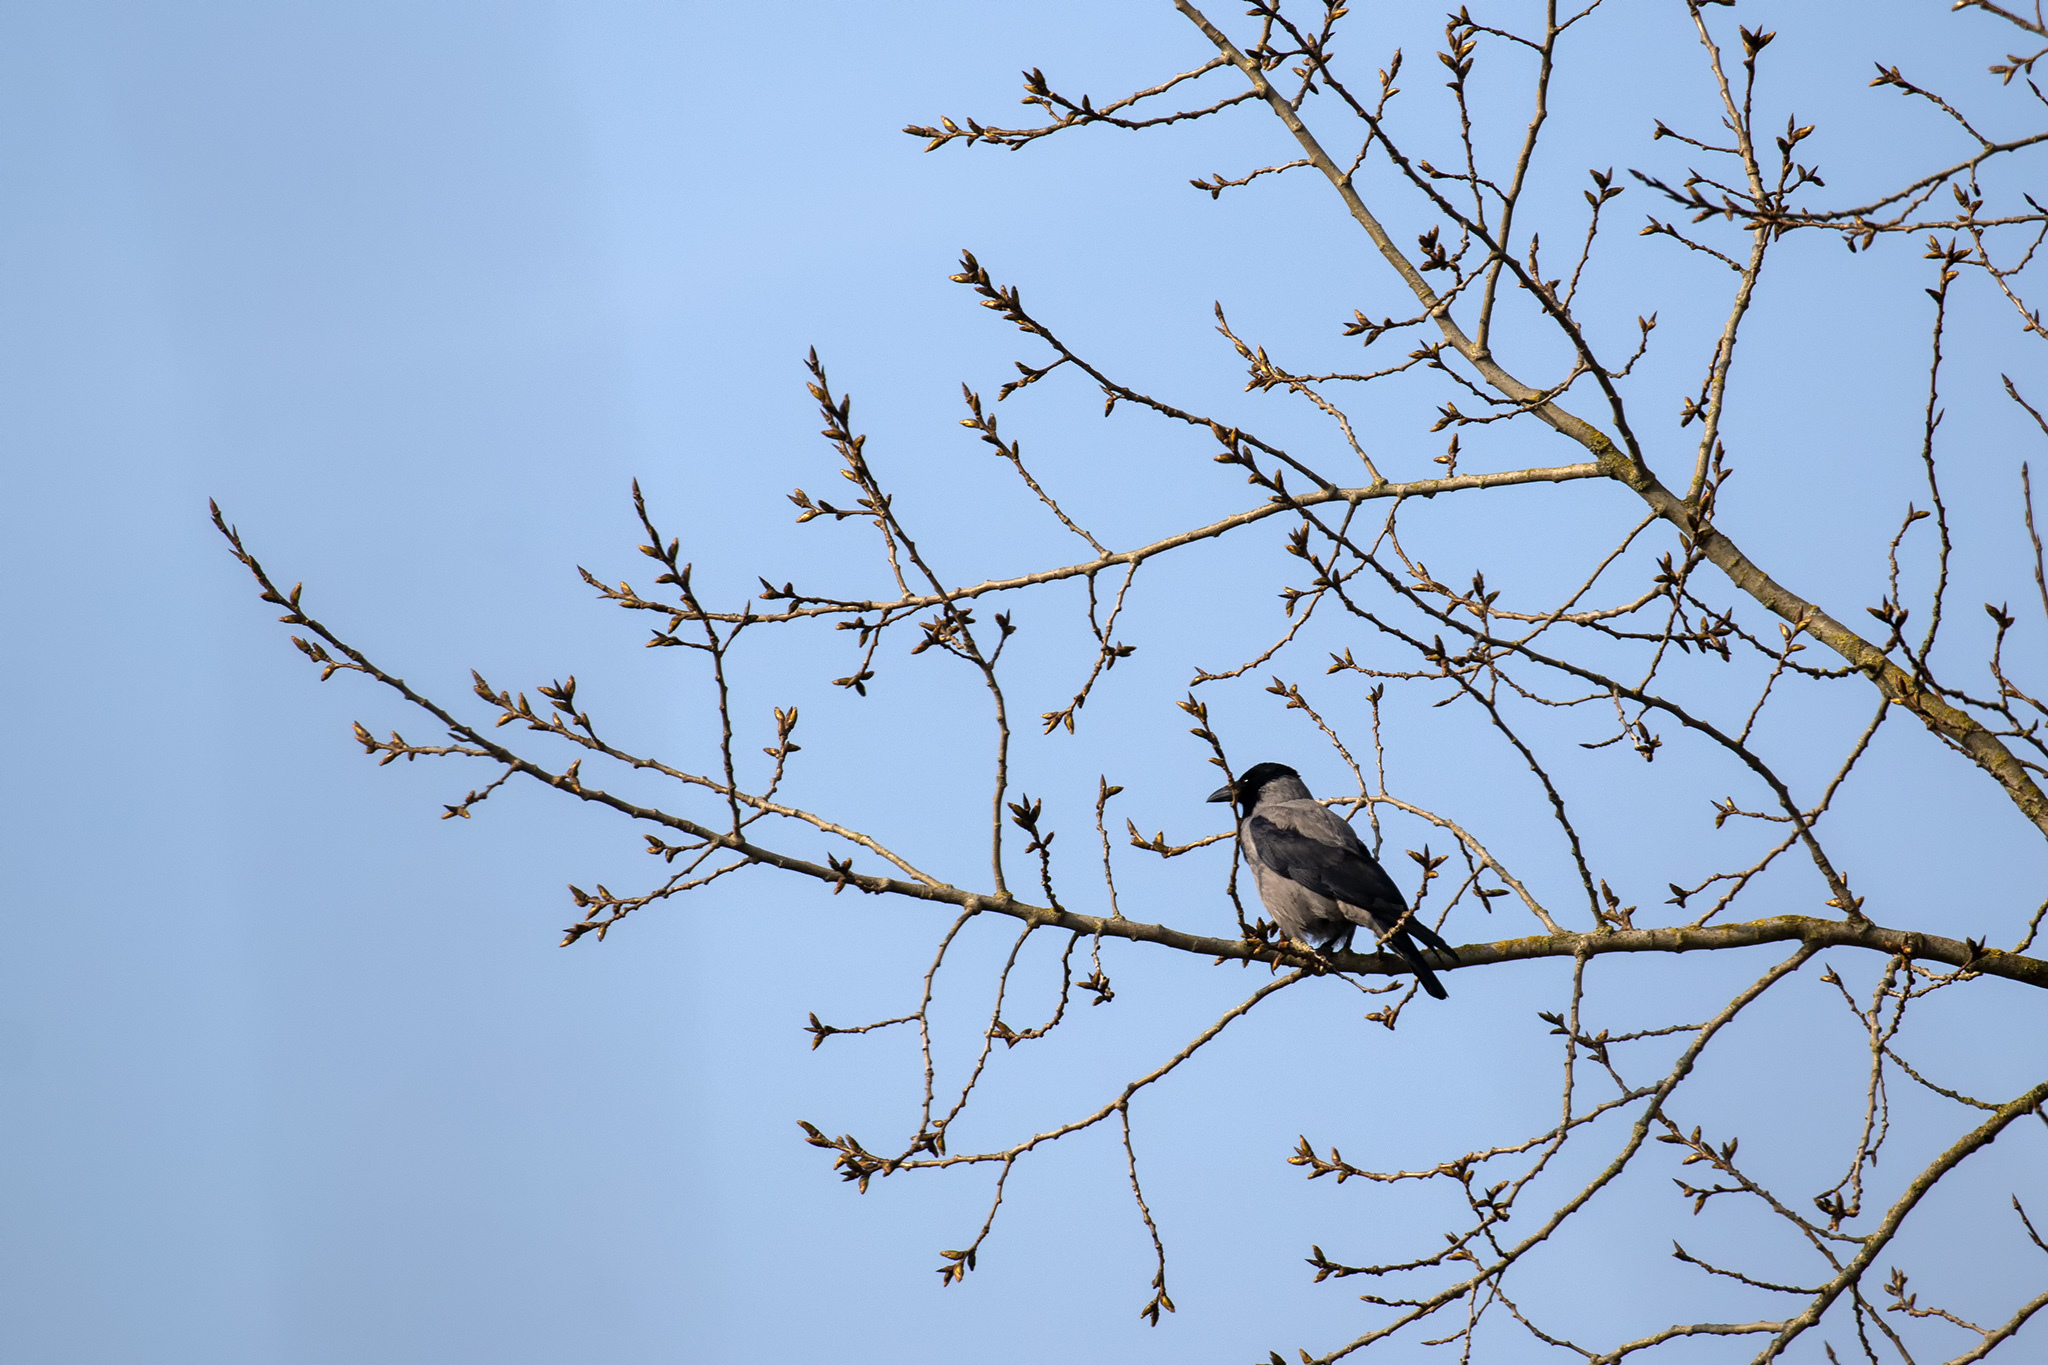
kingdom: Animalia
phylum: Chordata
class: Aves
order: Passeriformes
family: Corvidae
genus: Corvus
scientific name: Corvus cornix
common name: Hooded crow
